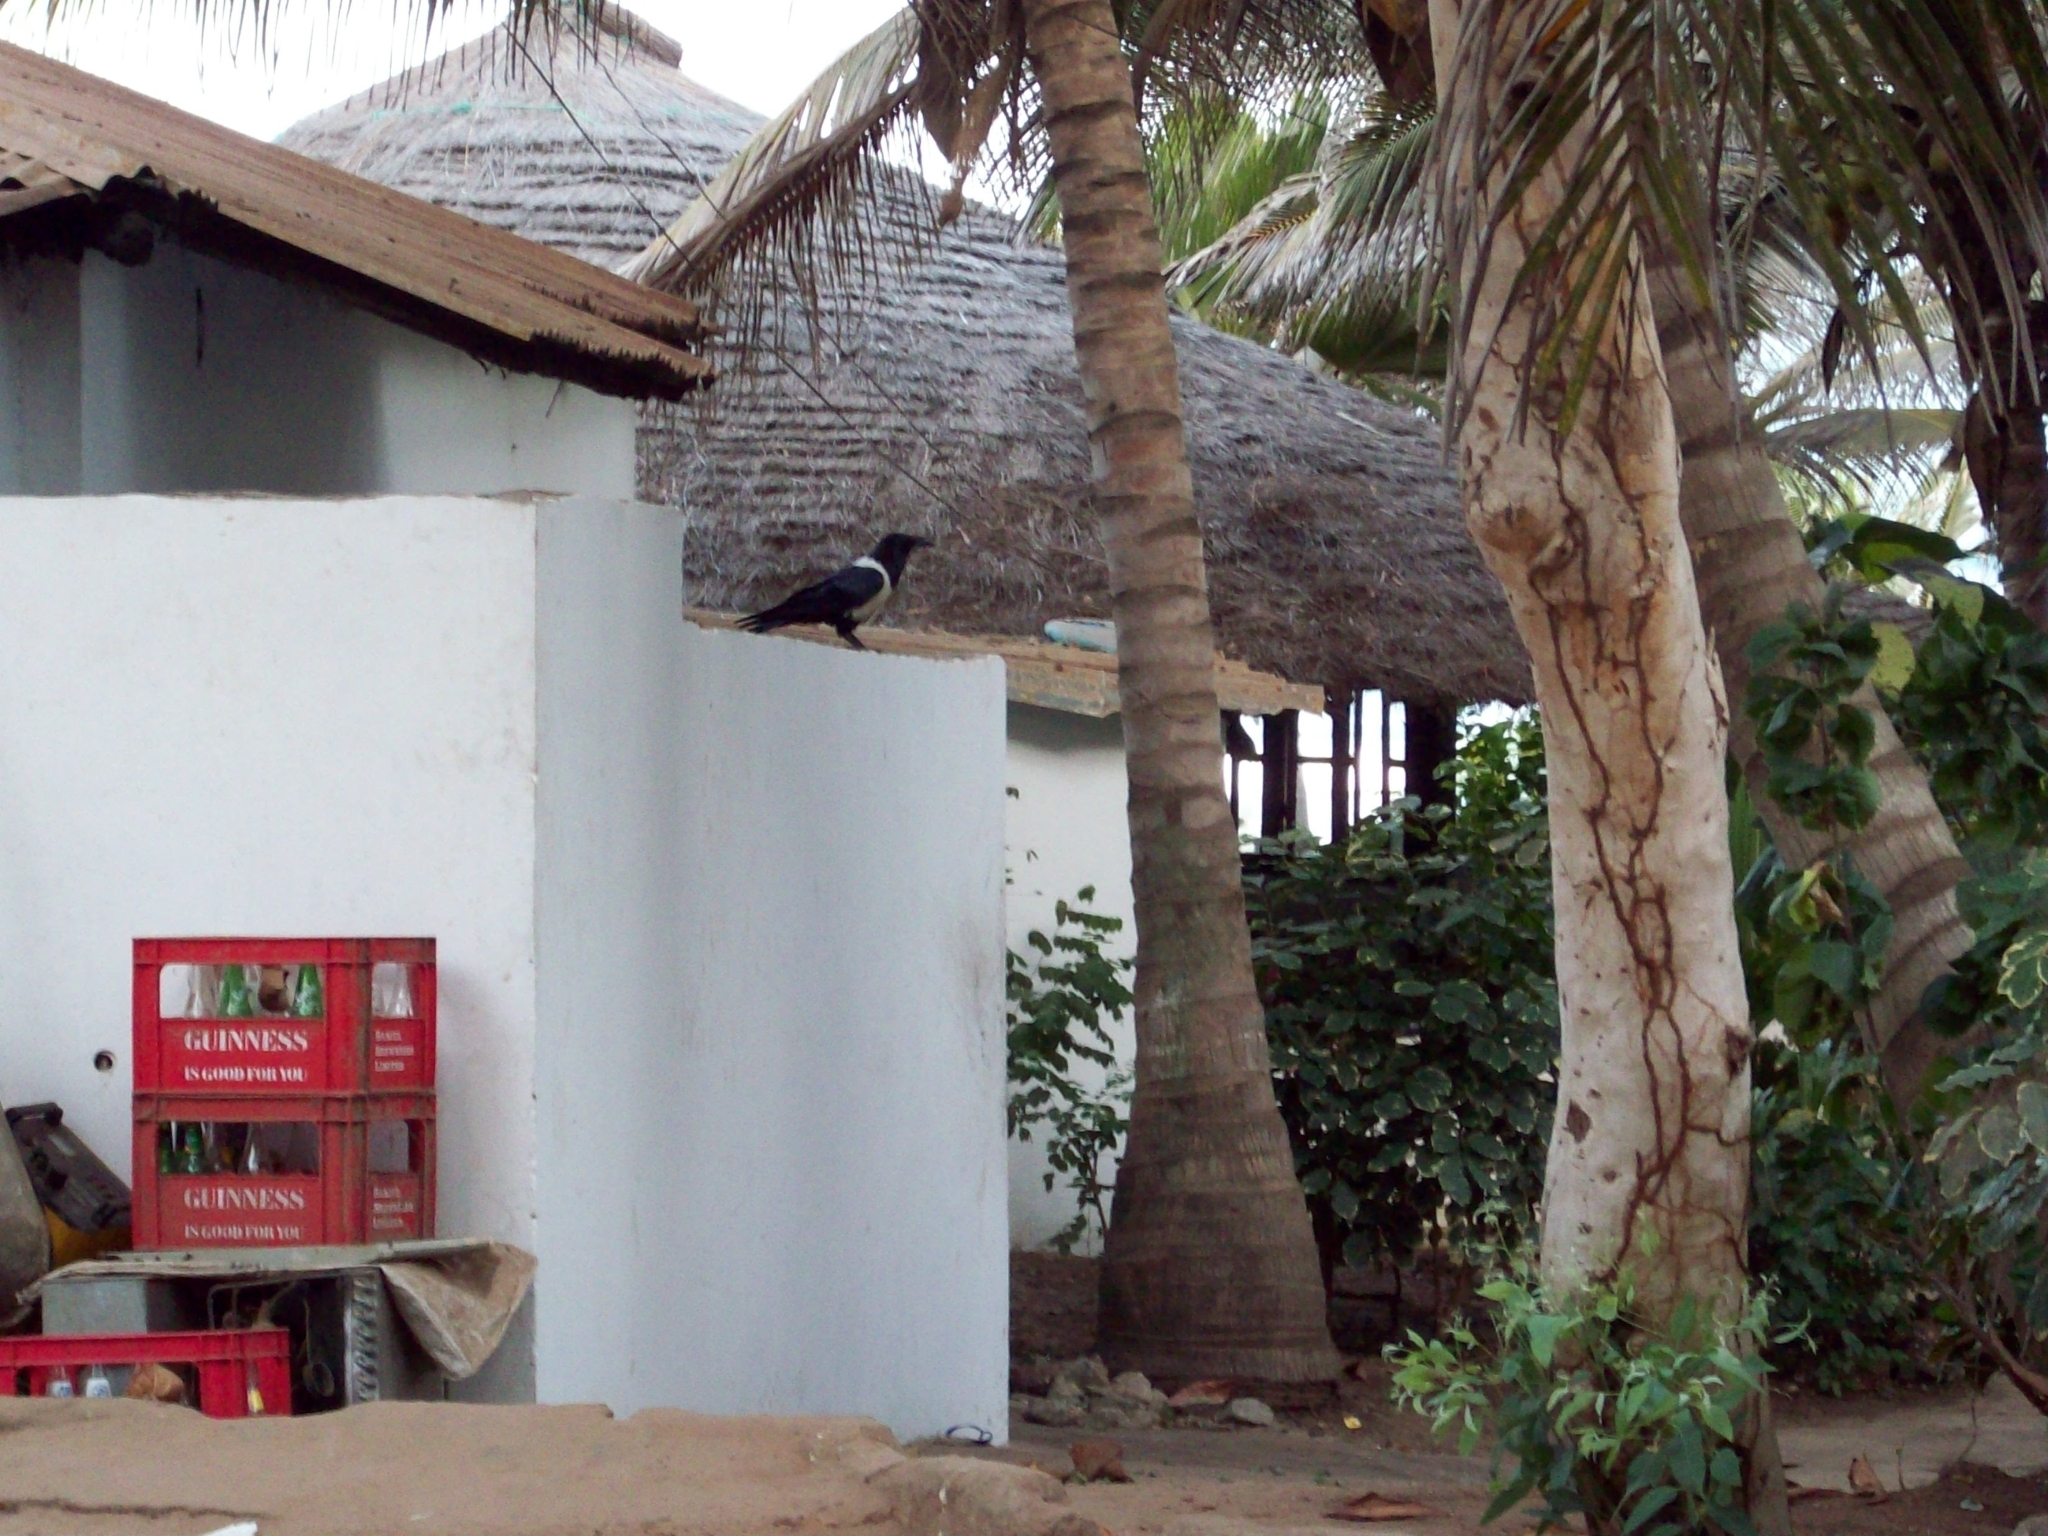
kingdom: Animalia
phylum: Chordata
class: Aves
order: Passeriformes
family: Corvidae
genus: Corvus
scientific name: Corvus albus
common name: Pied crow
